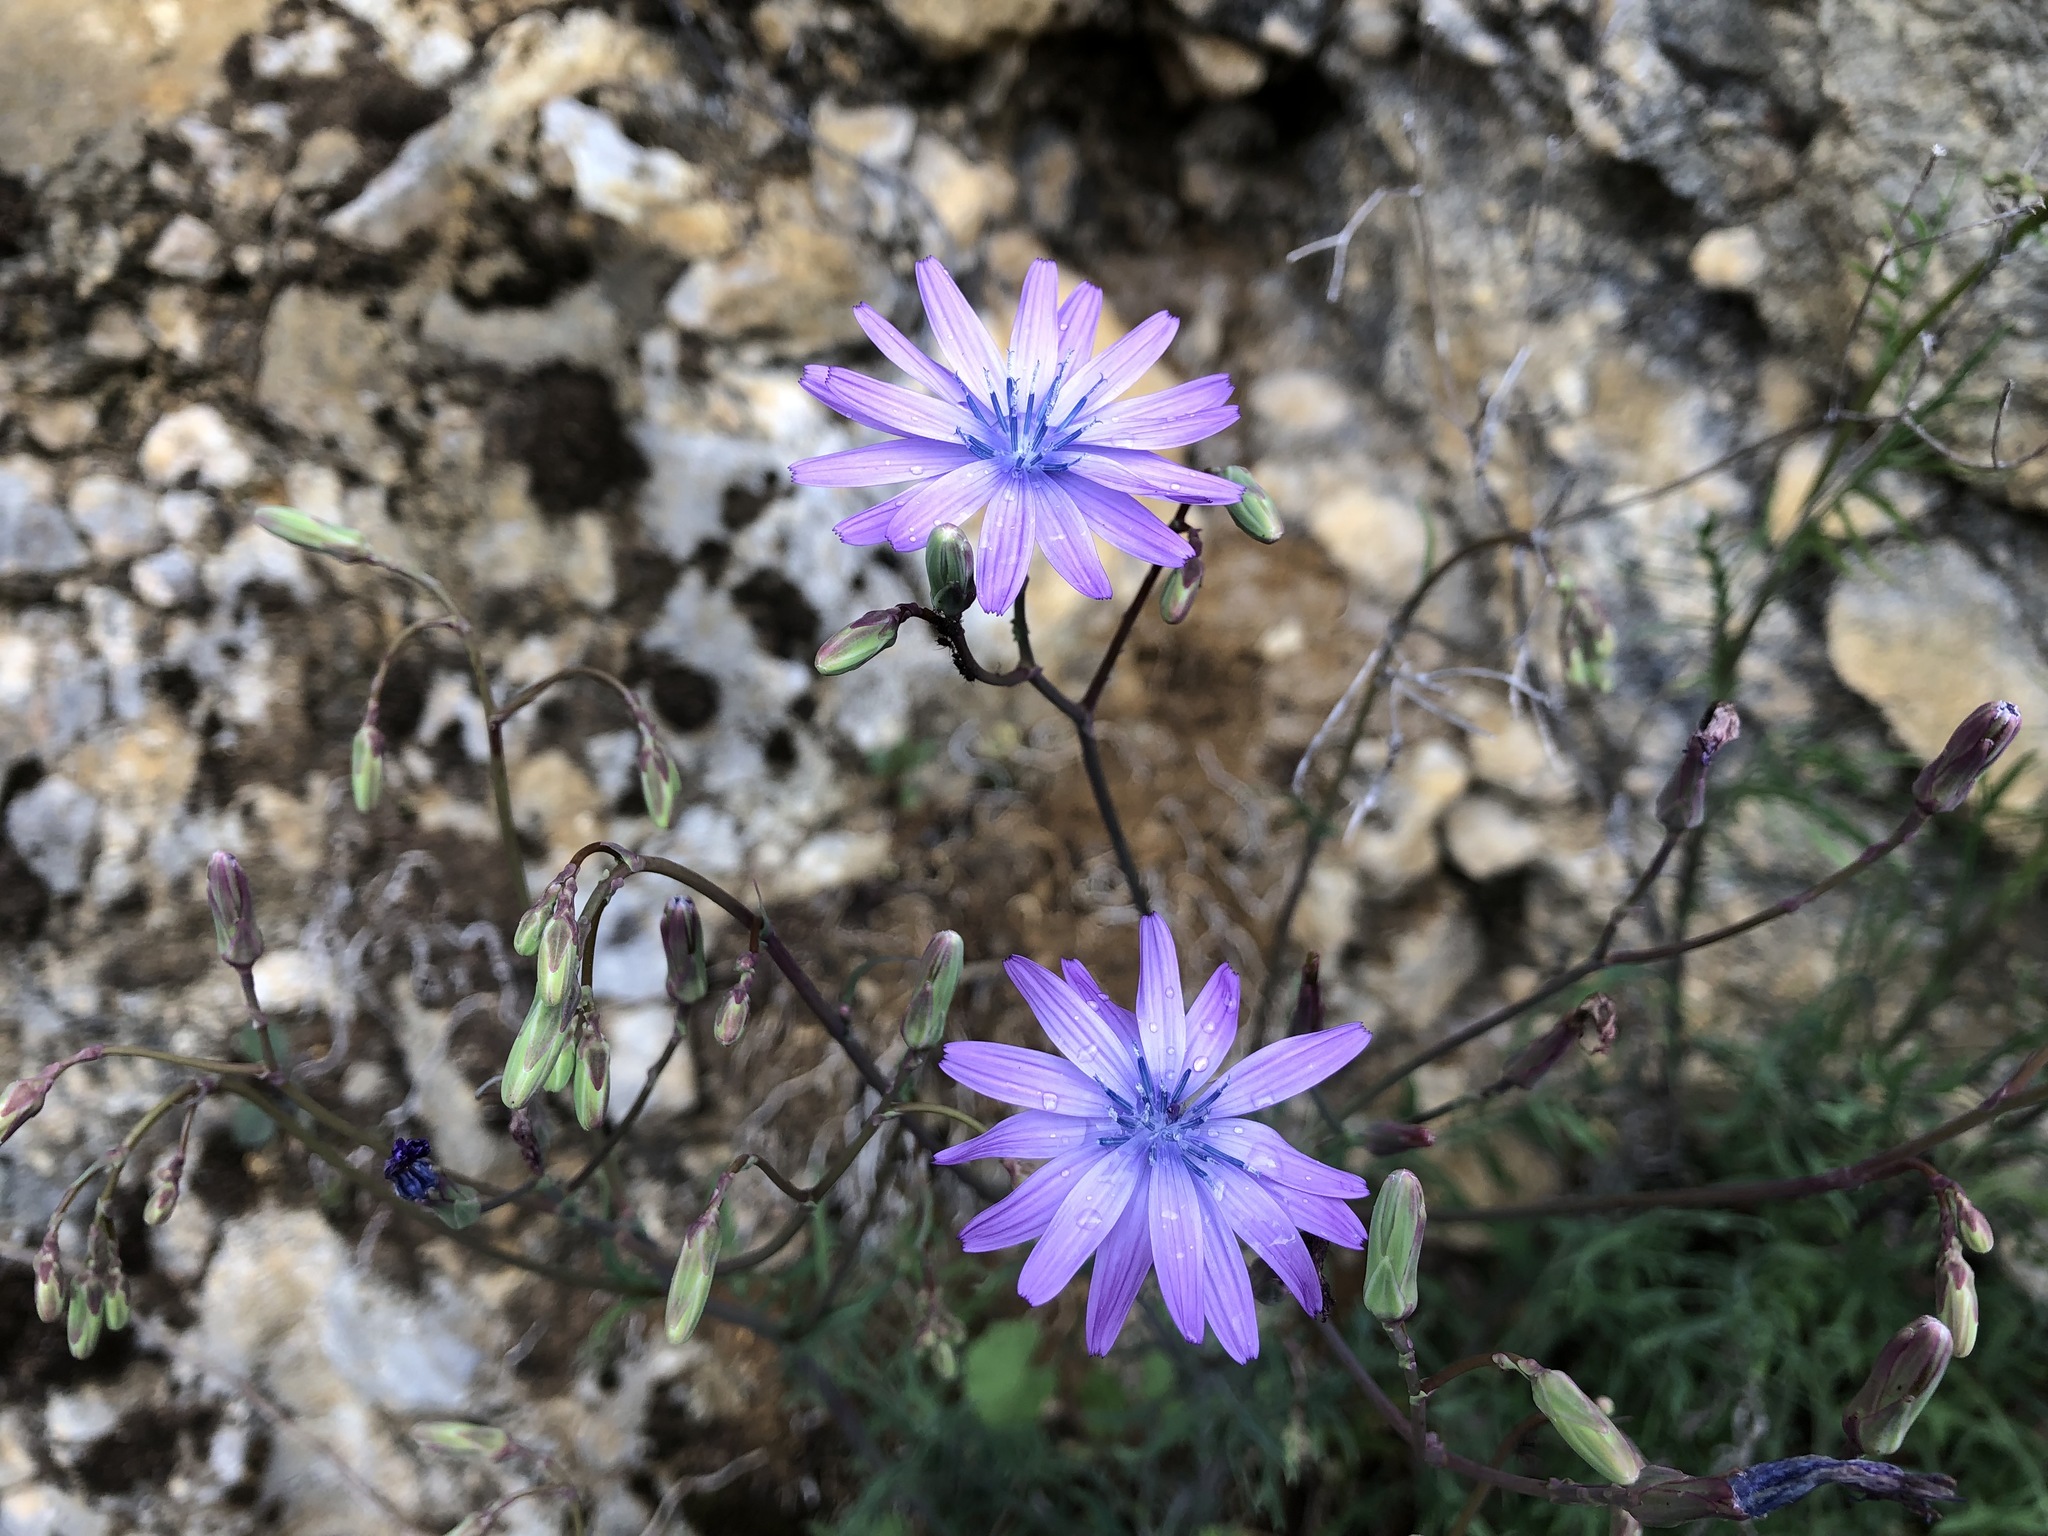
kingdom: Plantae
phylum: Tracheophyta
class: Magnoliopsida
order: Asterales
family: Asteraceae
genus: Lactuca
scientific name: Lactuca perennis
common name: Mountain lettuce
